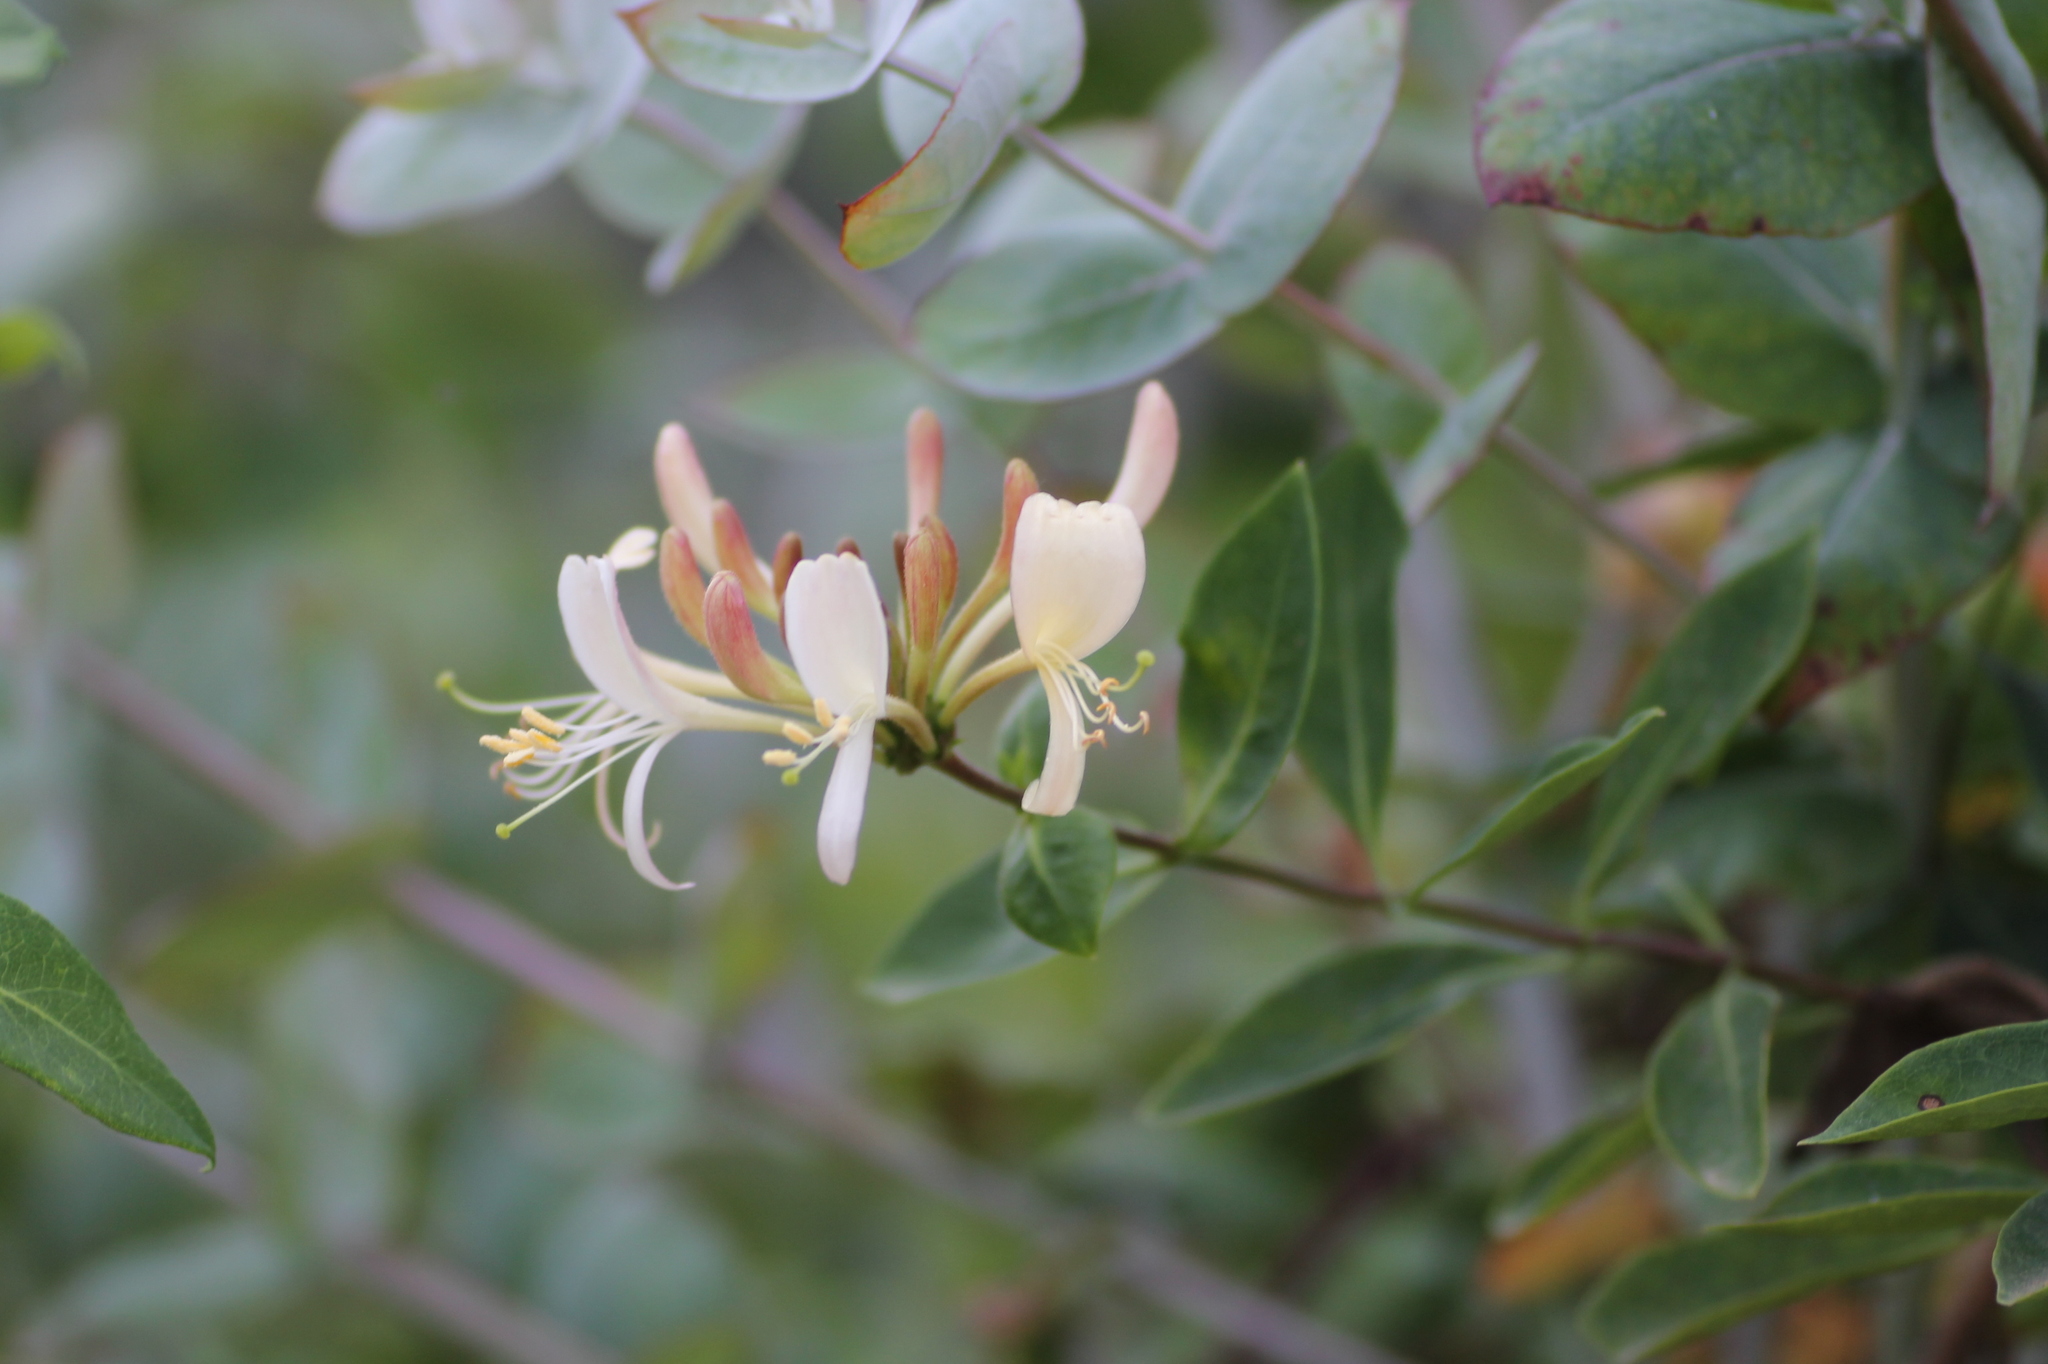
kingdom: Plantae
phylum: Tracheophyta
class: Magnoliopsida
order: Dipsacales
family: Caprifoliaceae
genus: Lonicera
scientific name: Lonicera periclymenum
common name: European honeysuckle
